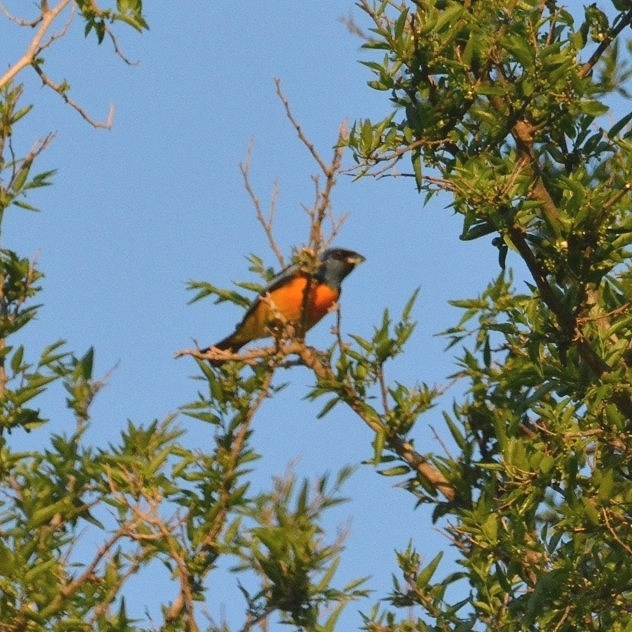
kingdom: Animalia
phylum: Chordata
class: Aves
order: Passeriformes
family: Thraupidae
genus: Rauenia
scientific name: Rauenia bonariensis
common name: Blue-and-yellow tanager
